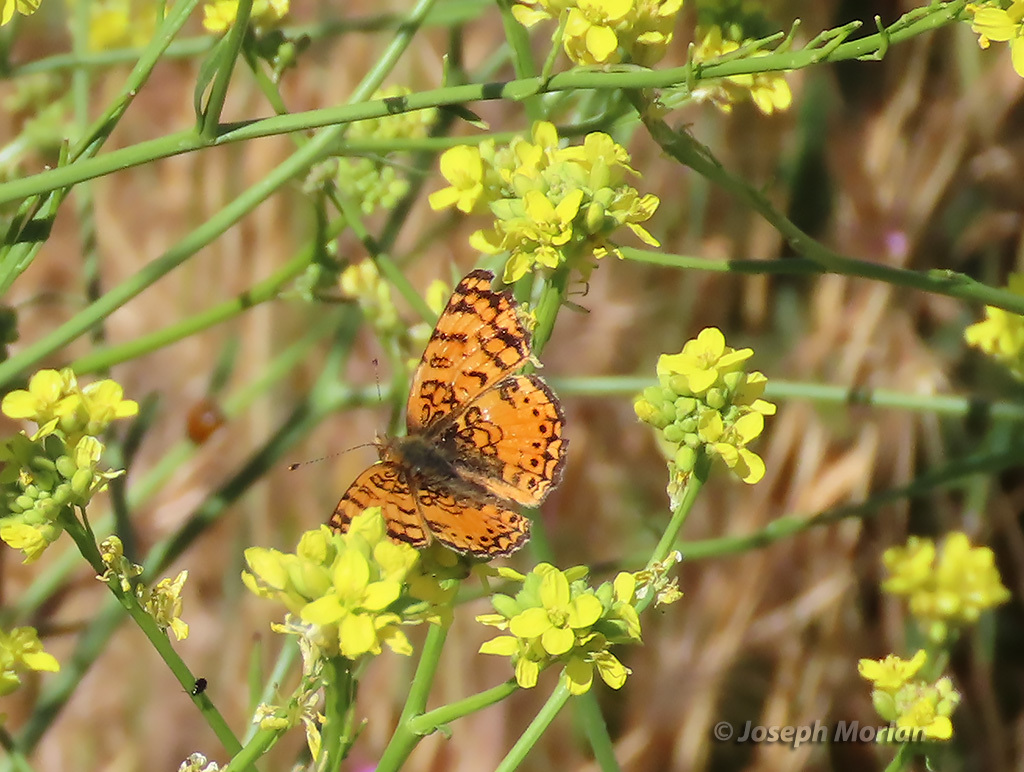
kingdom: Animalia
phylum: Arthropoda
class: Insecta
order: Lepidoptera
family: Nymphalidae
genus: Eresia
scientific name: Eresia aveyrona
